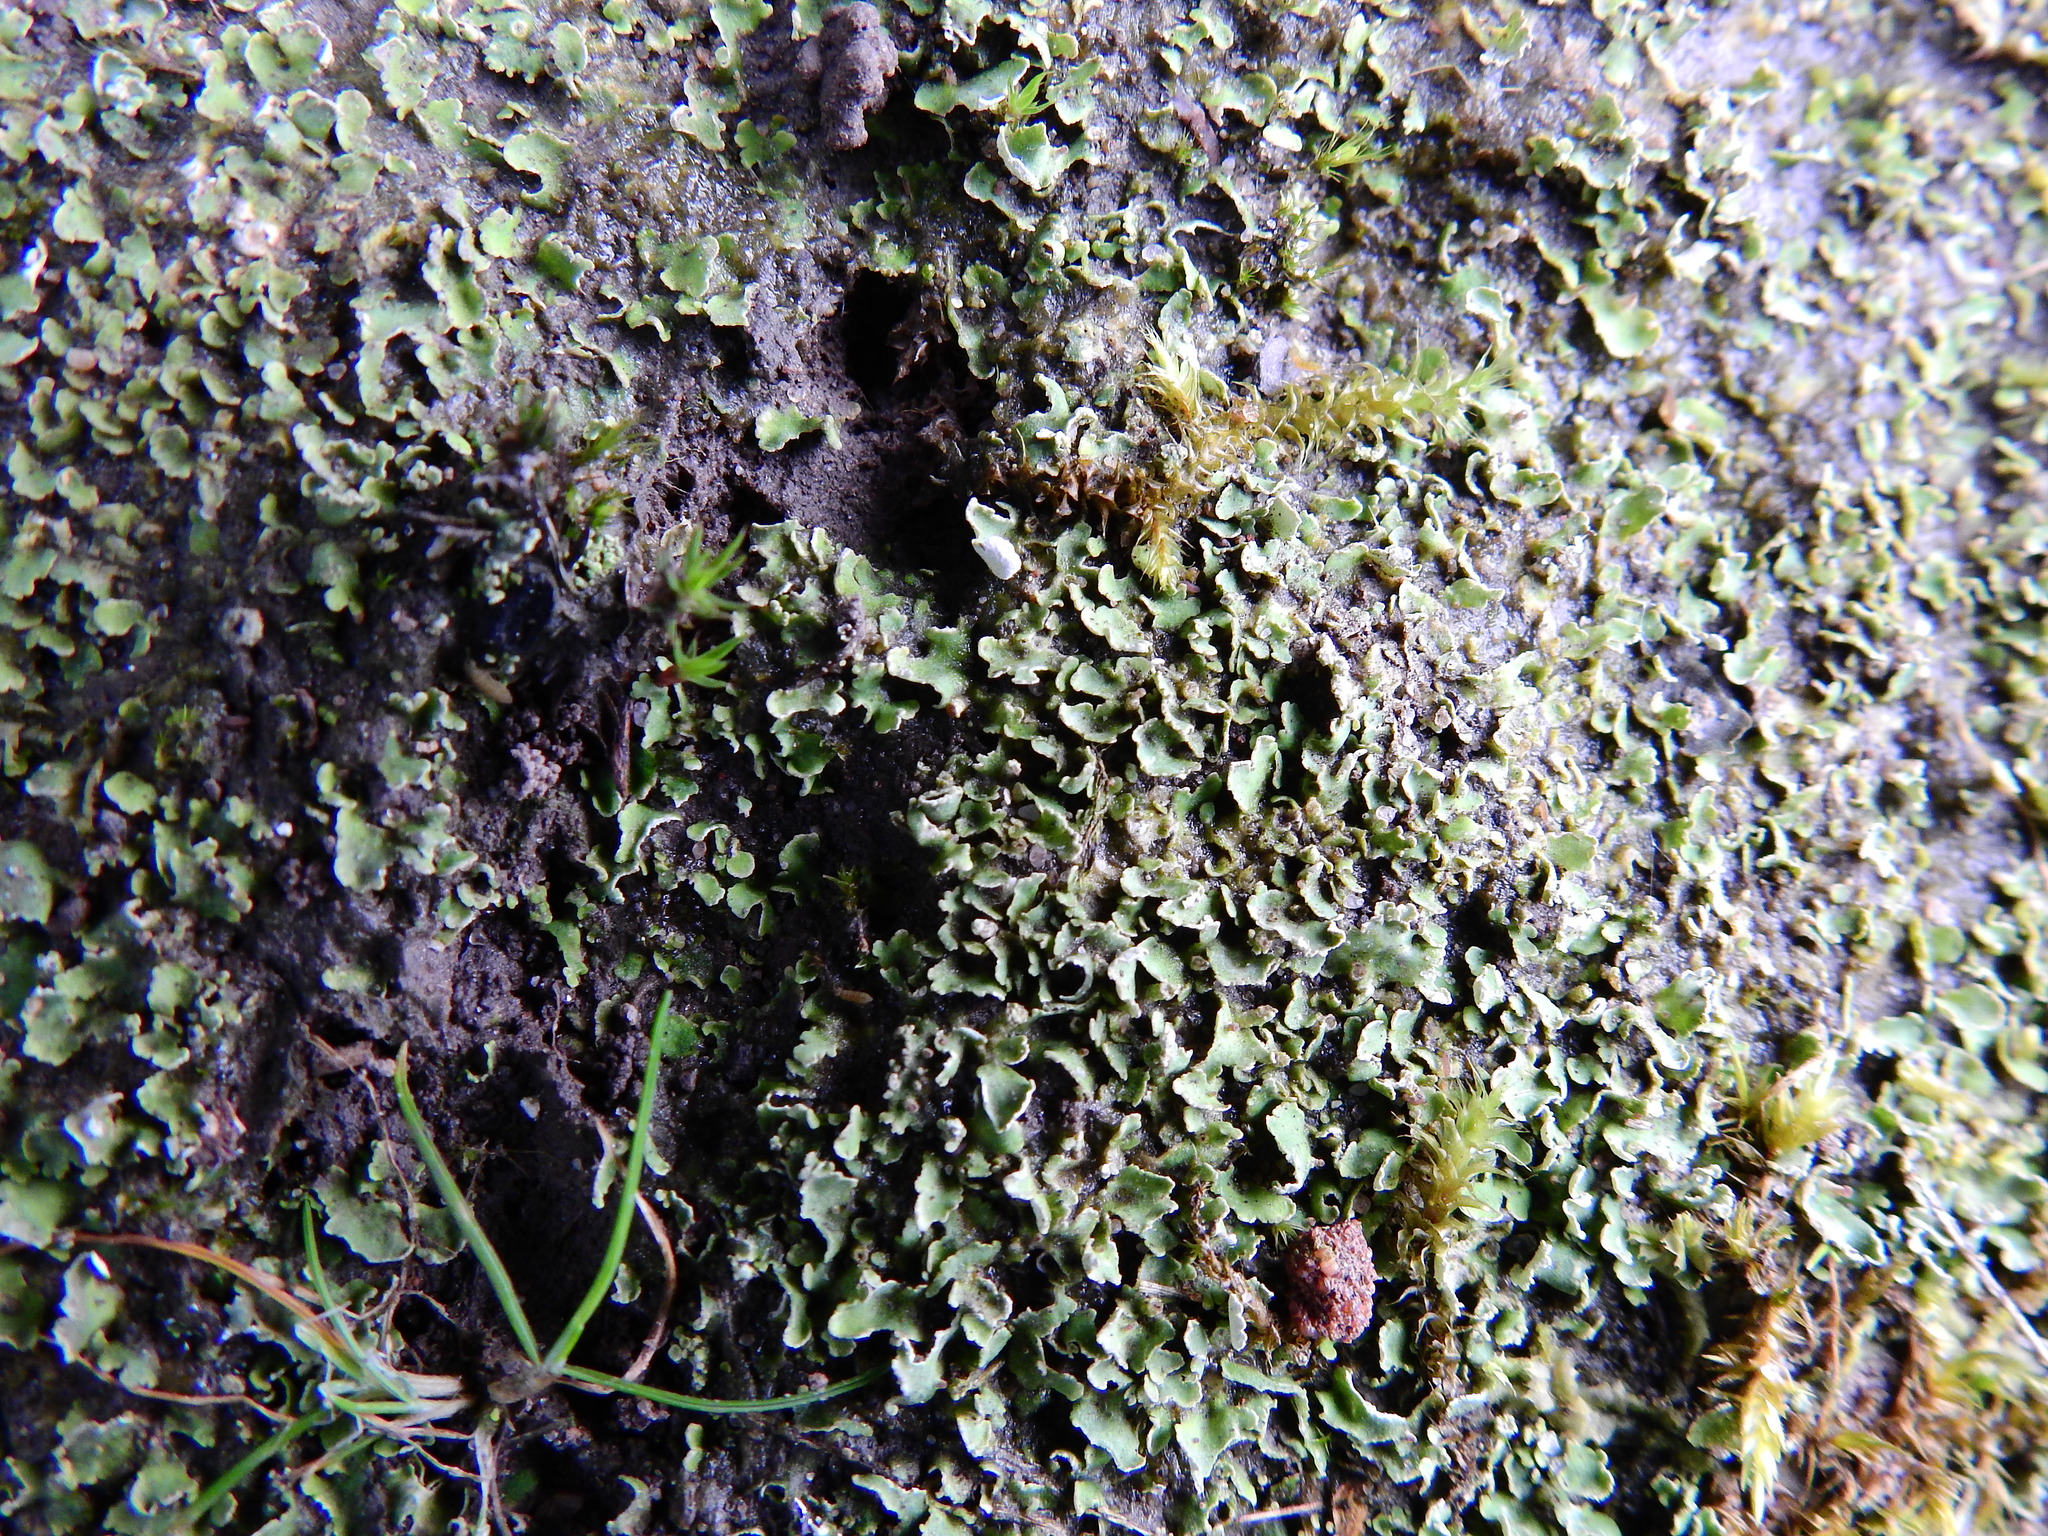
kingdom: Fungi
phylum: Ascomycota
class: Lecanoromycetes
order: Lecanorales
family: Cladoniaceae
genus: Cladonia
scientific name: Cladonia
